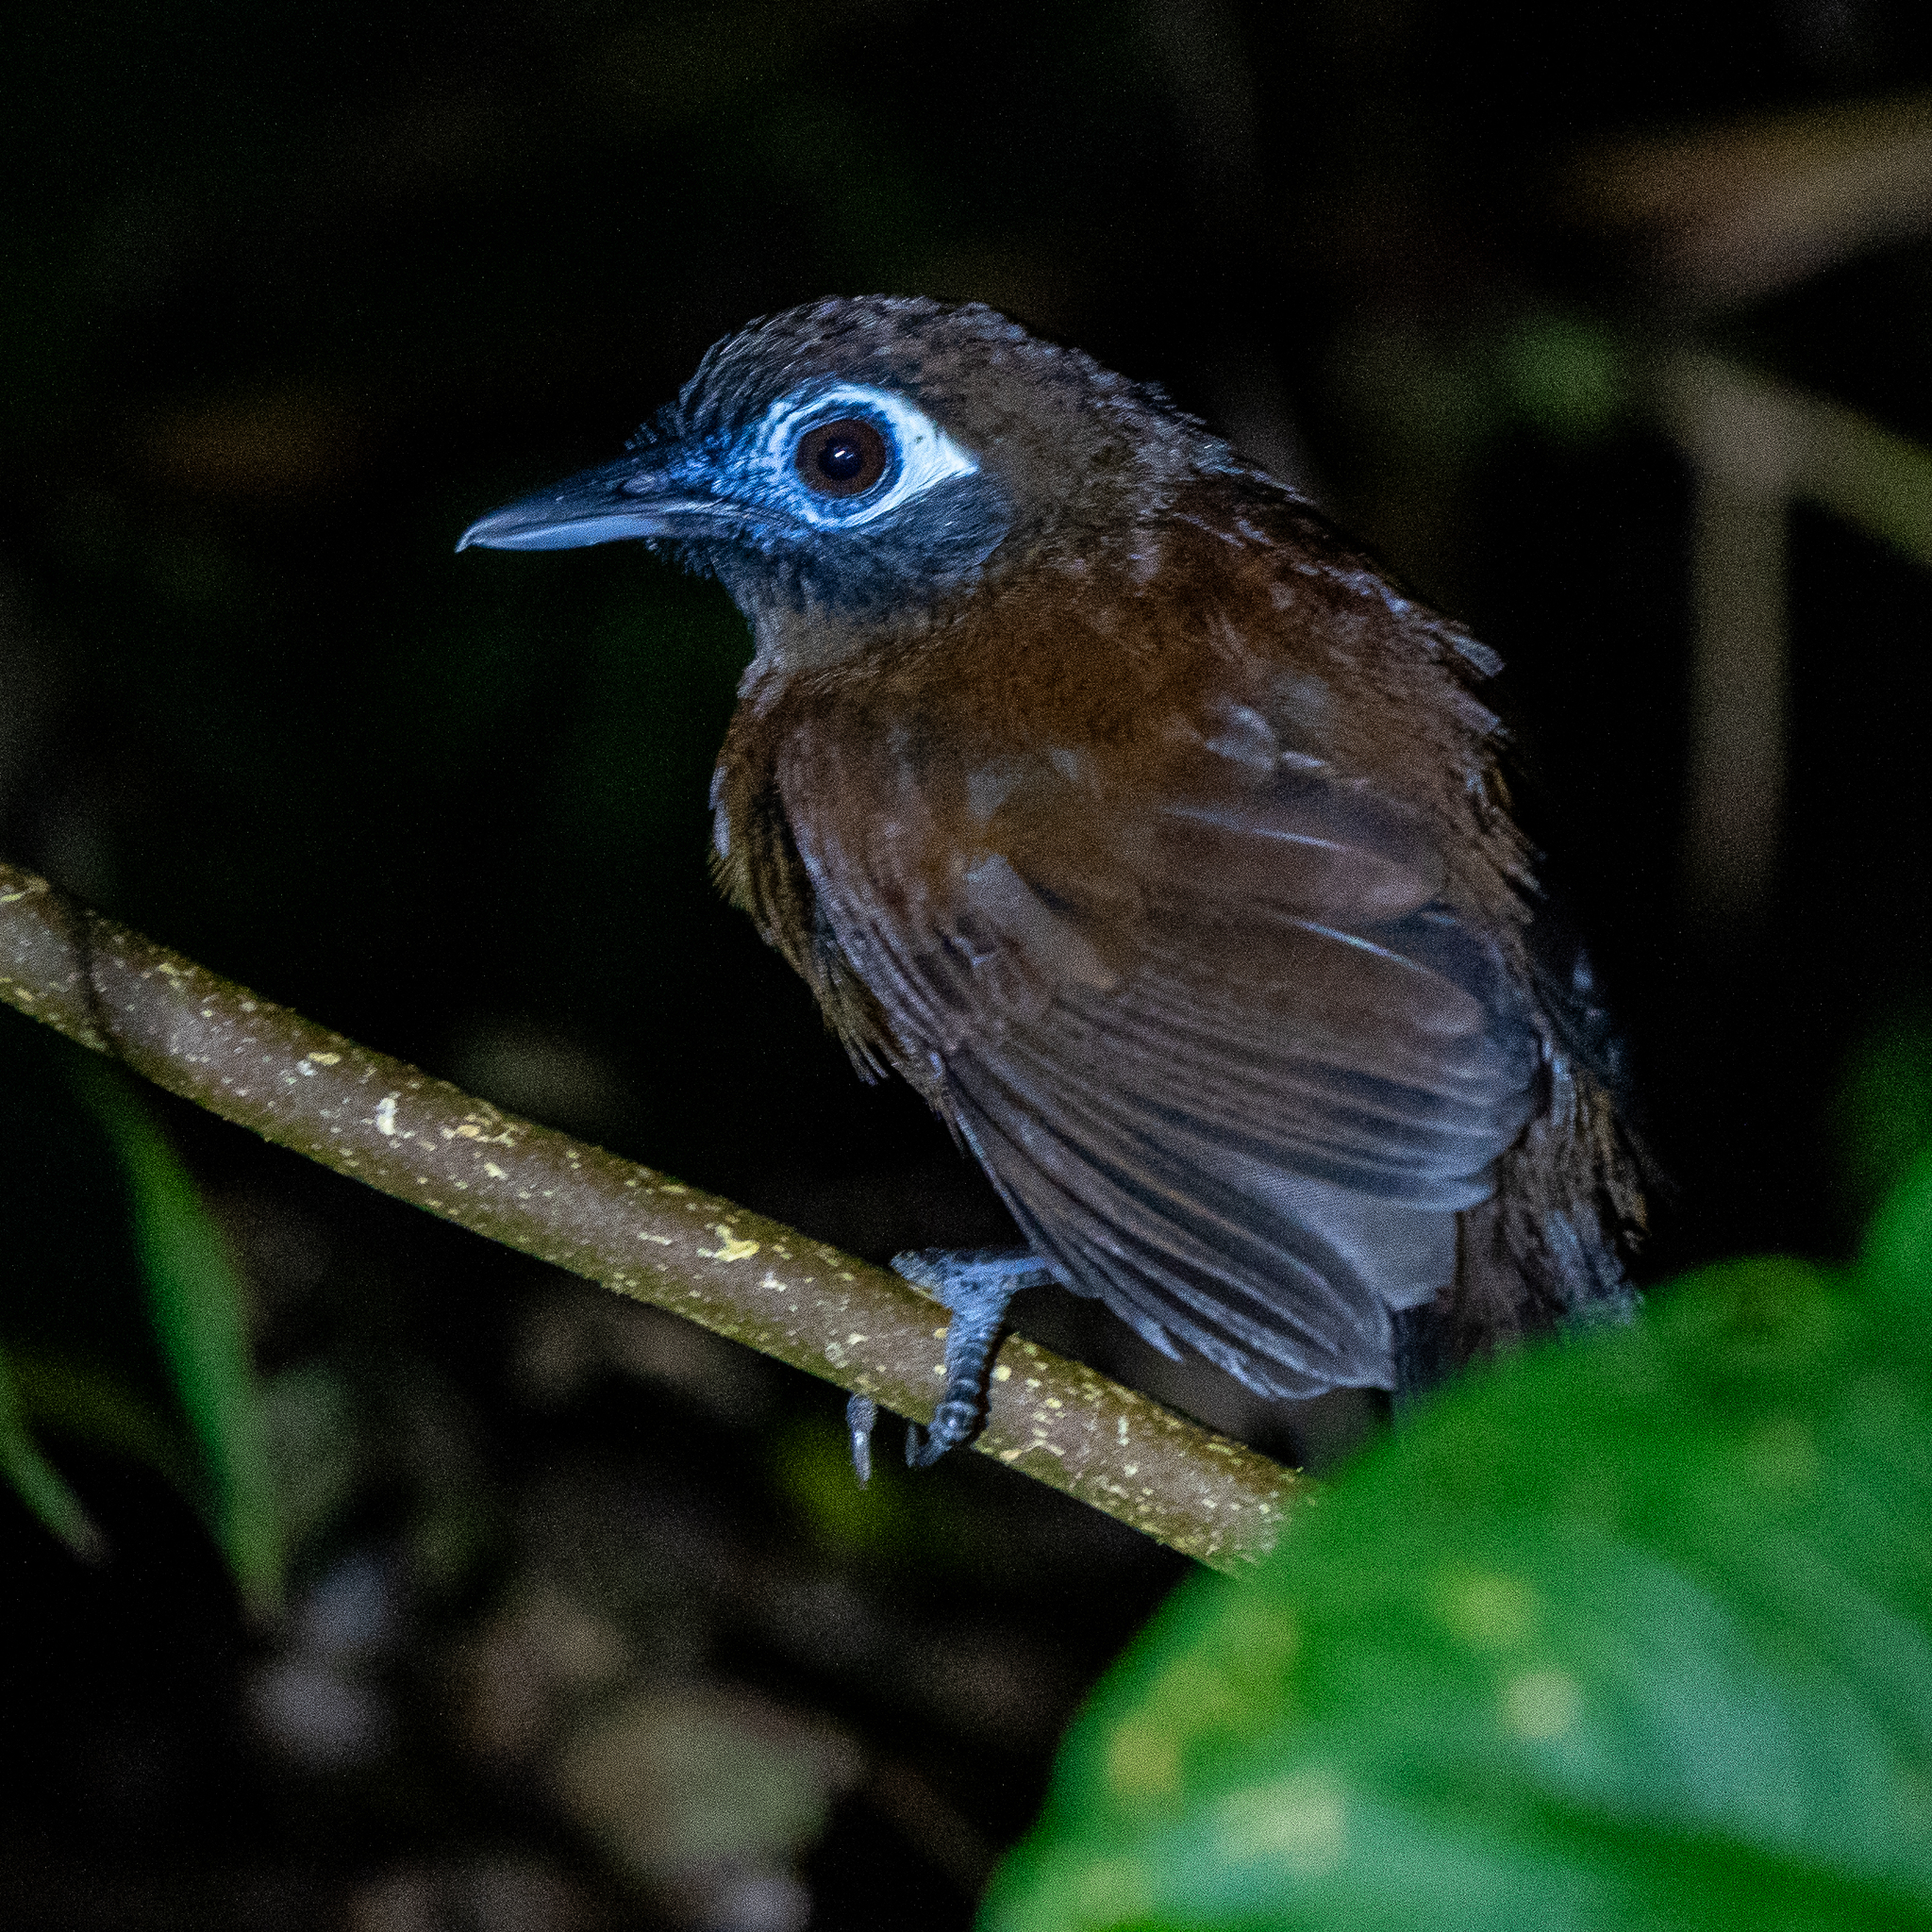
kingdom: Animalia
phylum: Chordata
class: Aves
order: Passeriformes
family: Thamnophilidae
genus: Hafferia
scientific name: Hafferia zeledoni
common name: Zeledon's antbird
